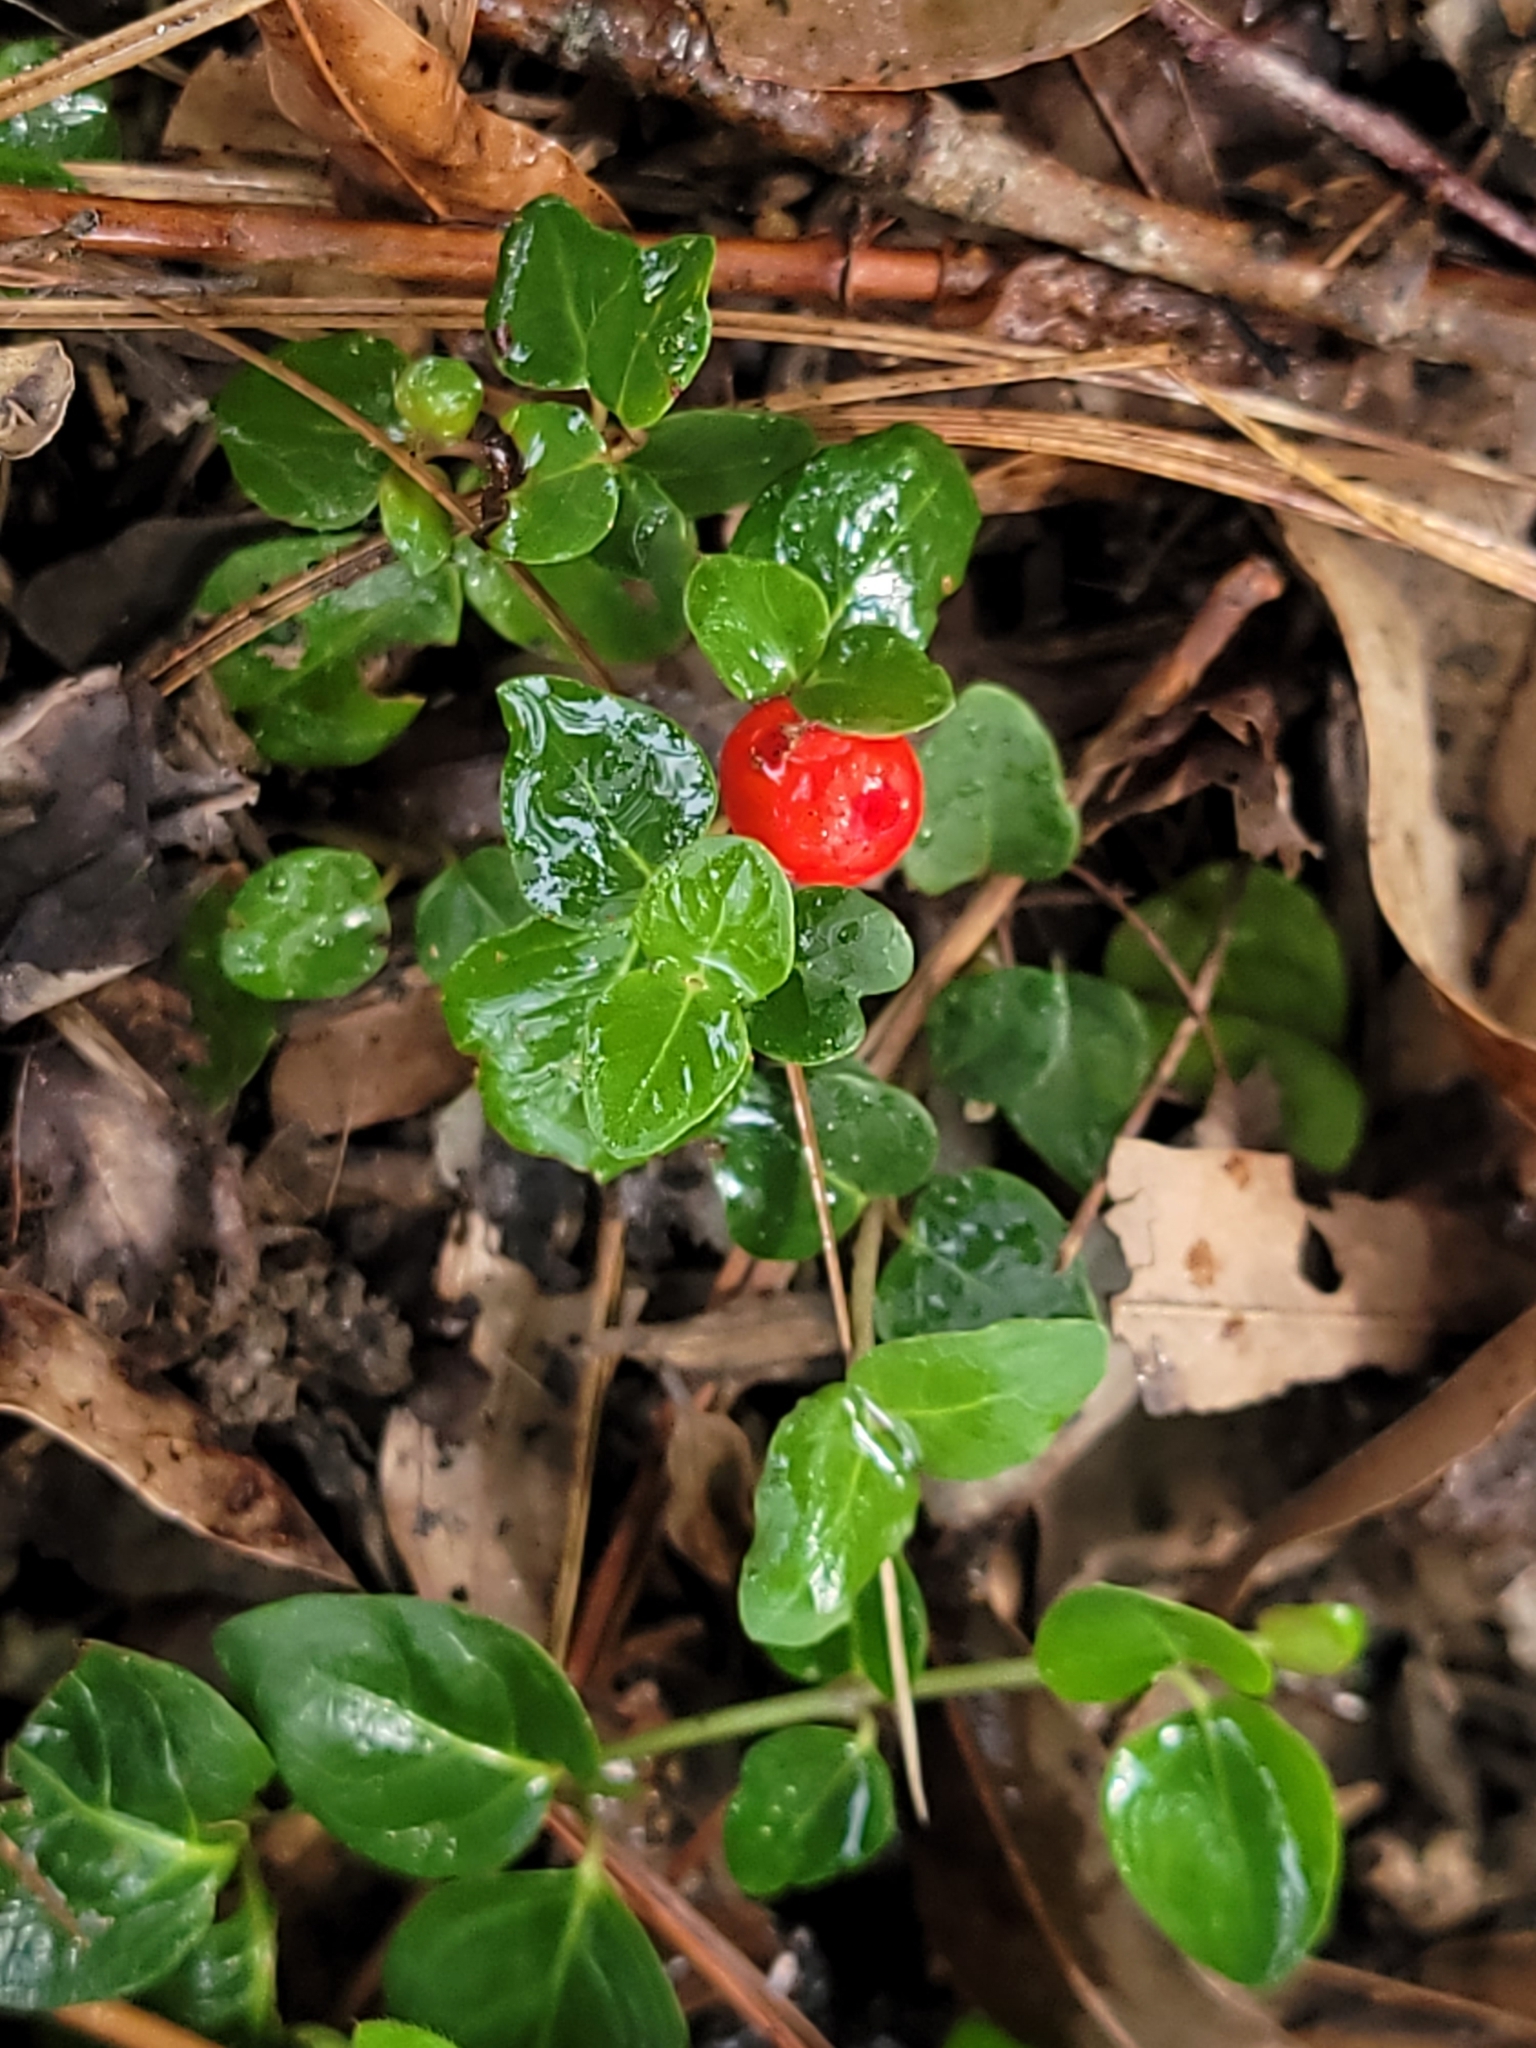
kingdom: Plantae
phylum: Tracheophyta
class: Magnoliopsida
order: Gentianales
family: Rubiaceae
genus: Mitchella
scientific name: Mitchella repens
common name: Partridge-berry
